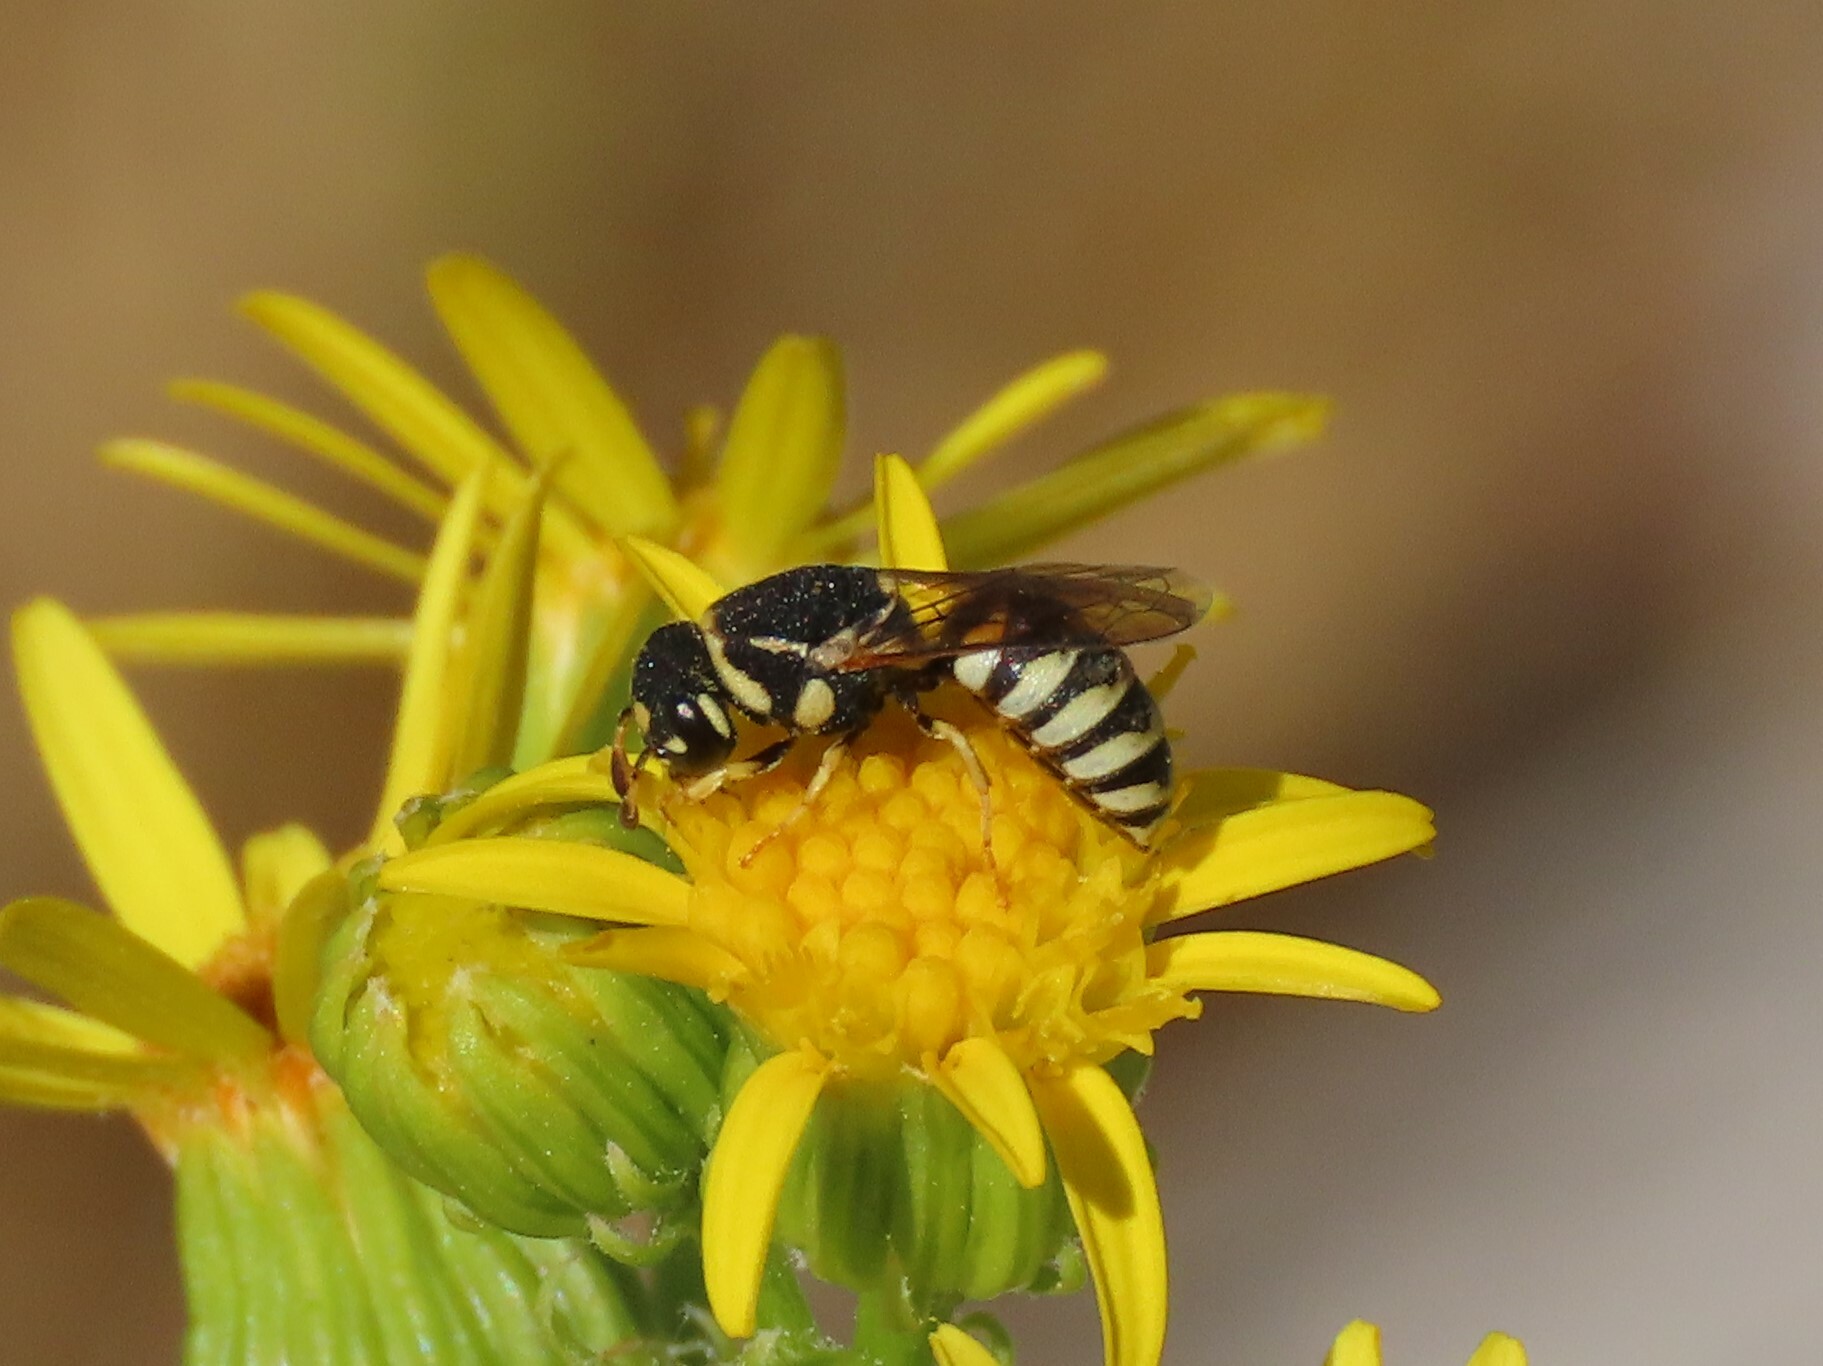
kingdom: Animalia
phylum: Arthropoda
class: Insecta
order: Hymenoptera
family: Masaridae
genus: Jugurtia
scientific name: Jugurtia dispar
